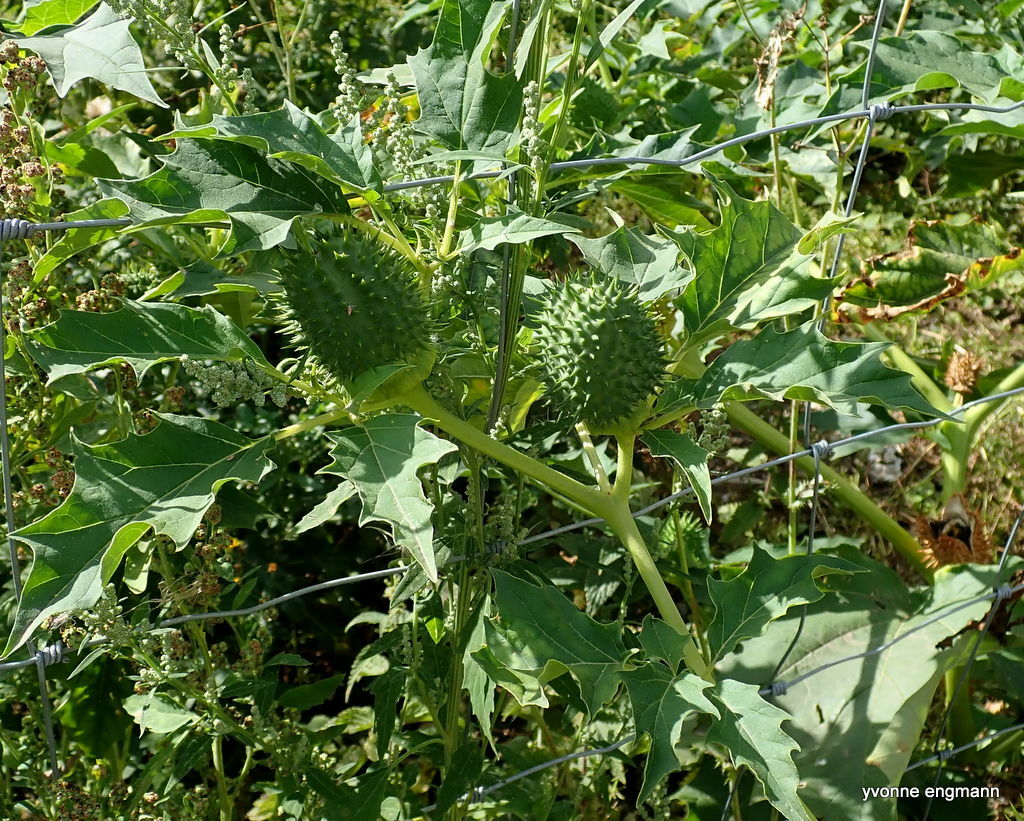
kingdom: Plantae
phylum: Tracheophyta
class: Magnoliopsida
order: Solanales
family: Solanaceae
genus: Datura
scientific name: Datura stramonium
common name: Thorn-apple
